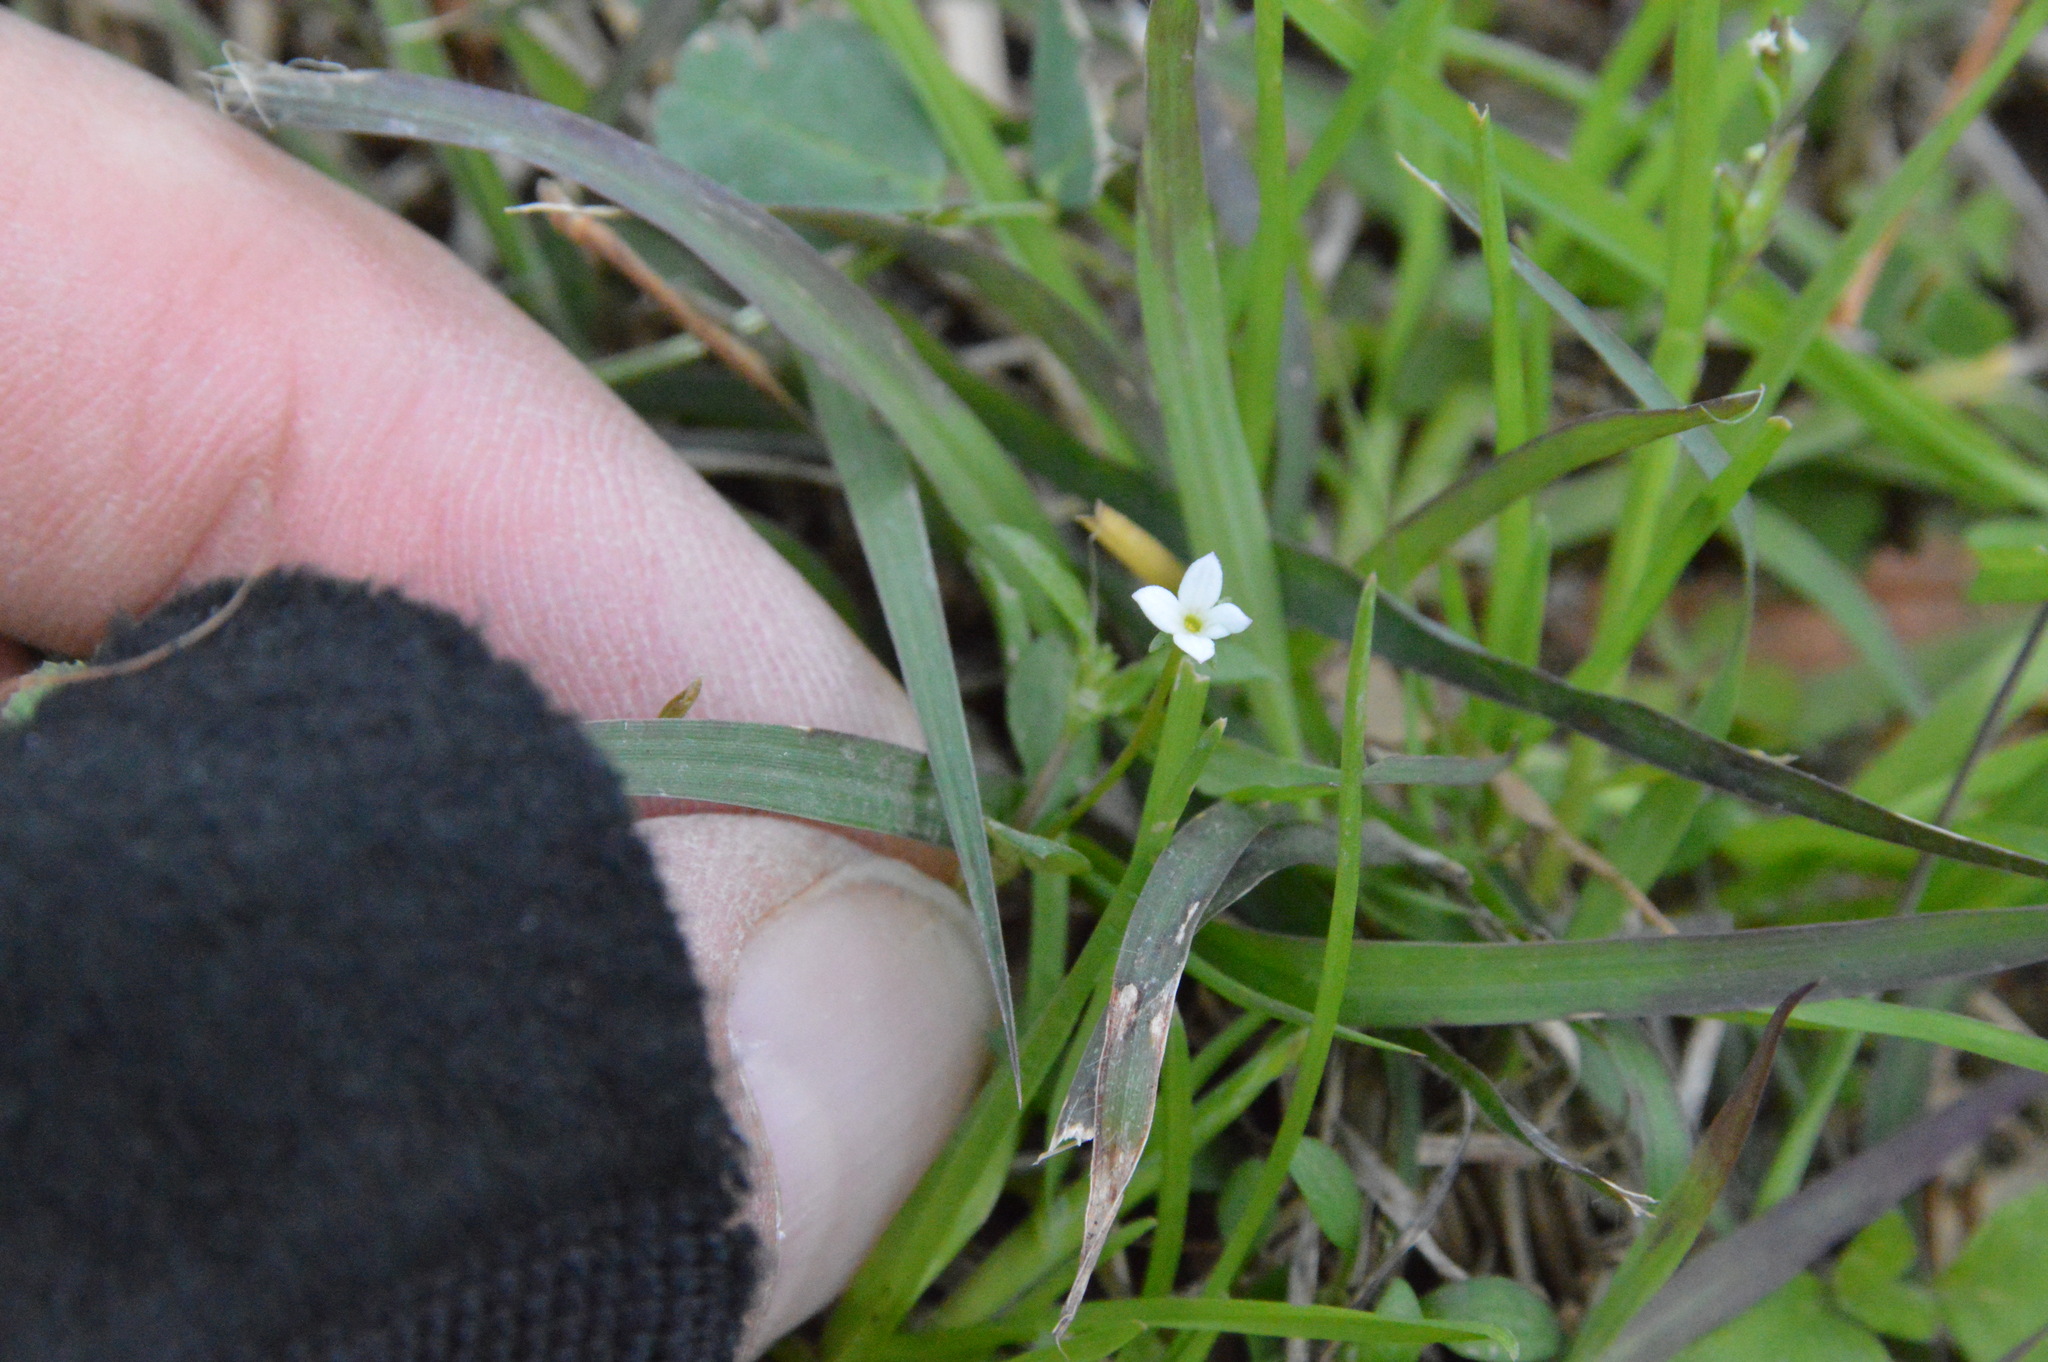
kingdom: Plantae
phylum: Tracheophyta
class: Magnoliopsida
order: Gentianales
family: Rubiaceae
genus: Houstonia
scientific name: Houstonia micrantha
